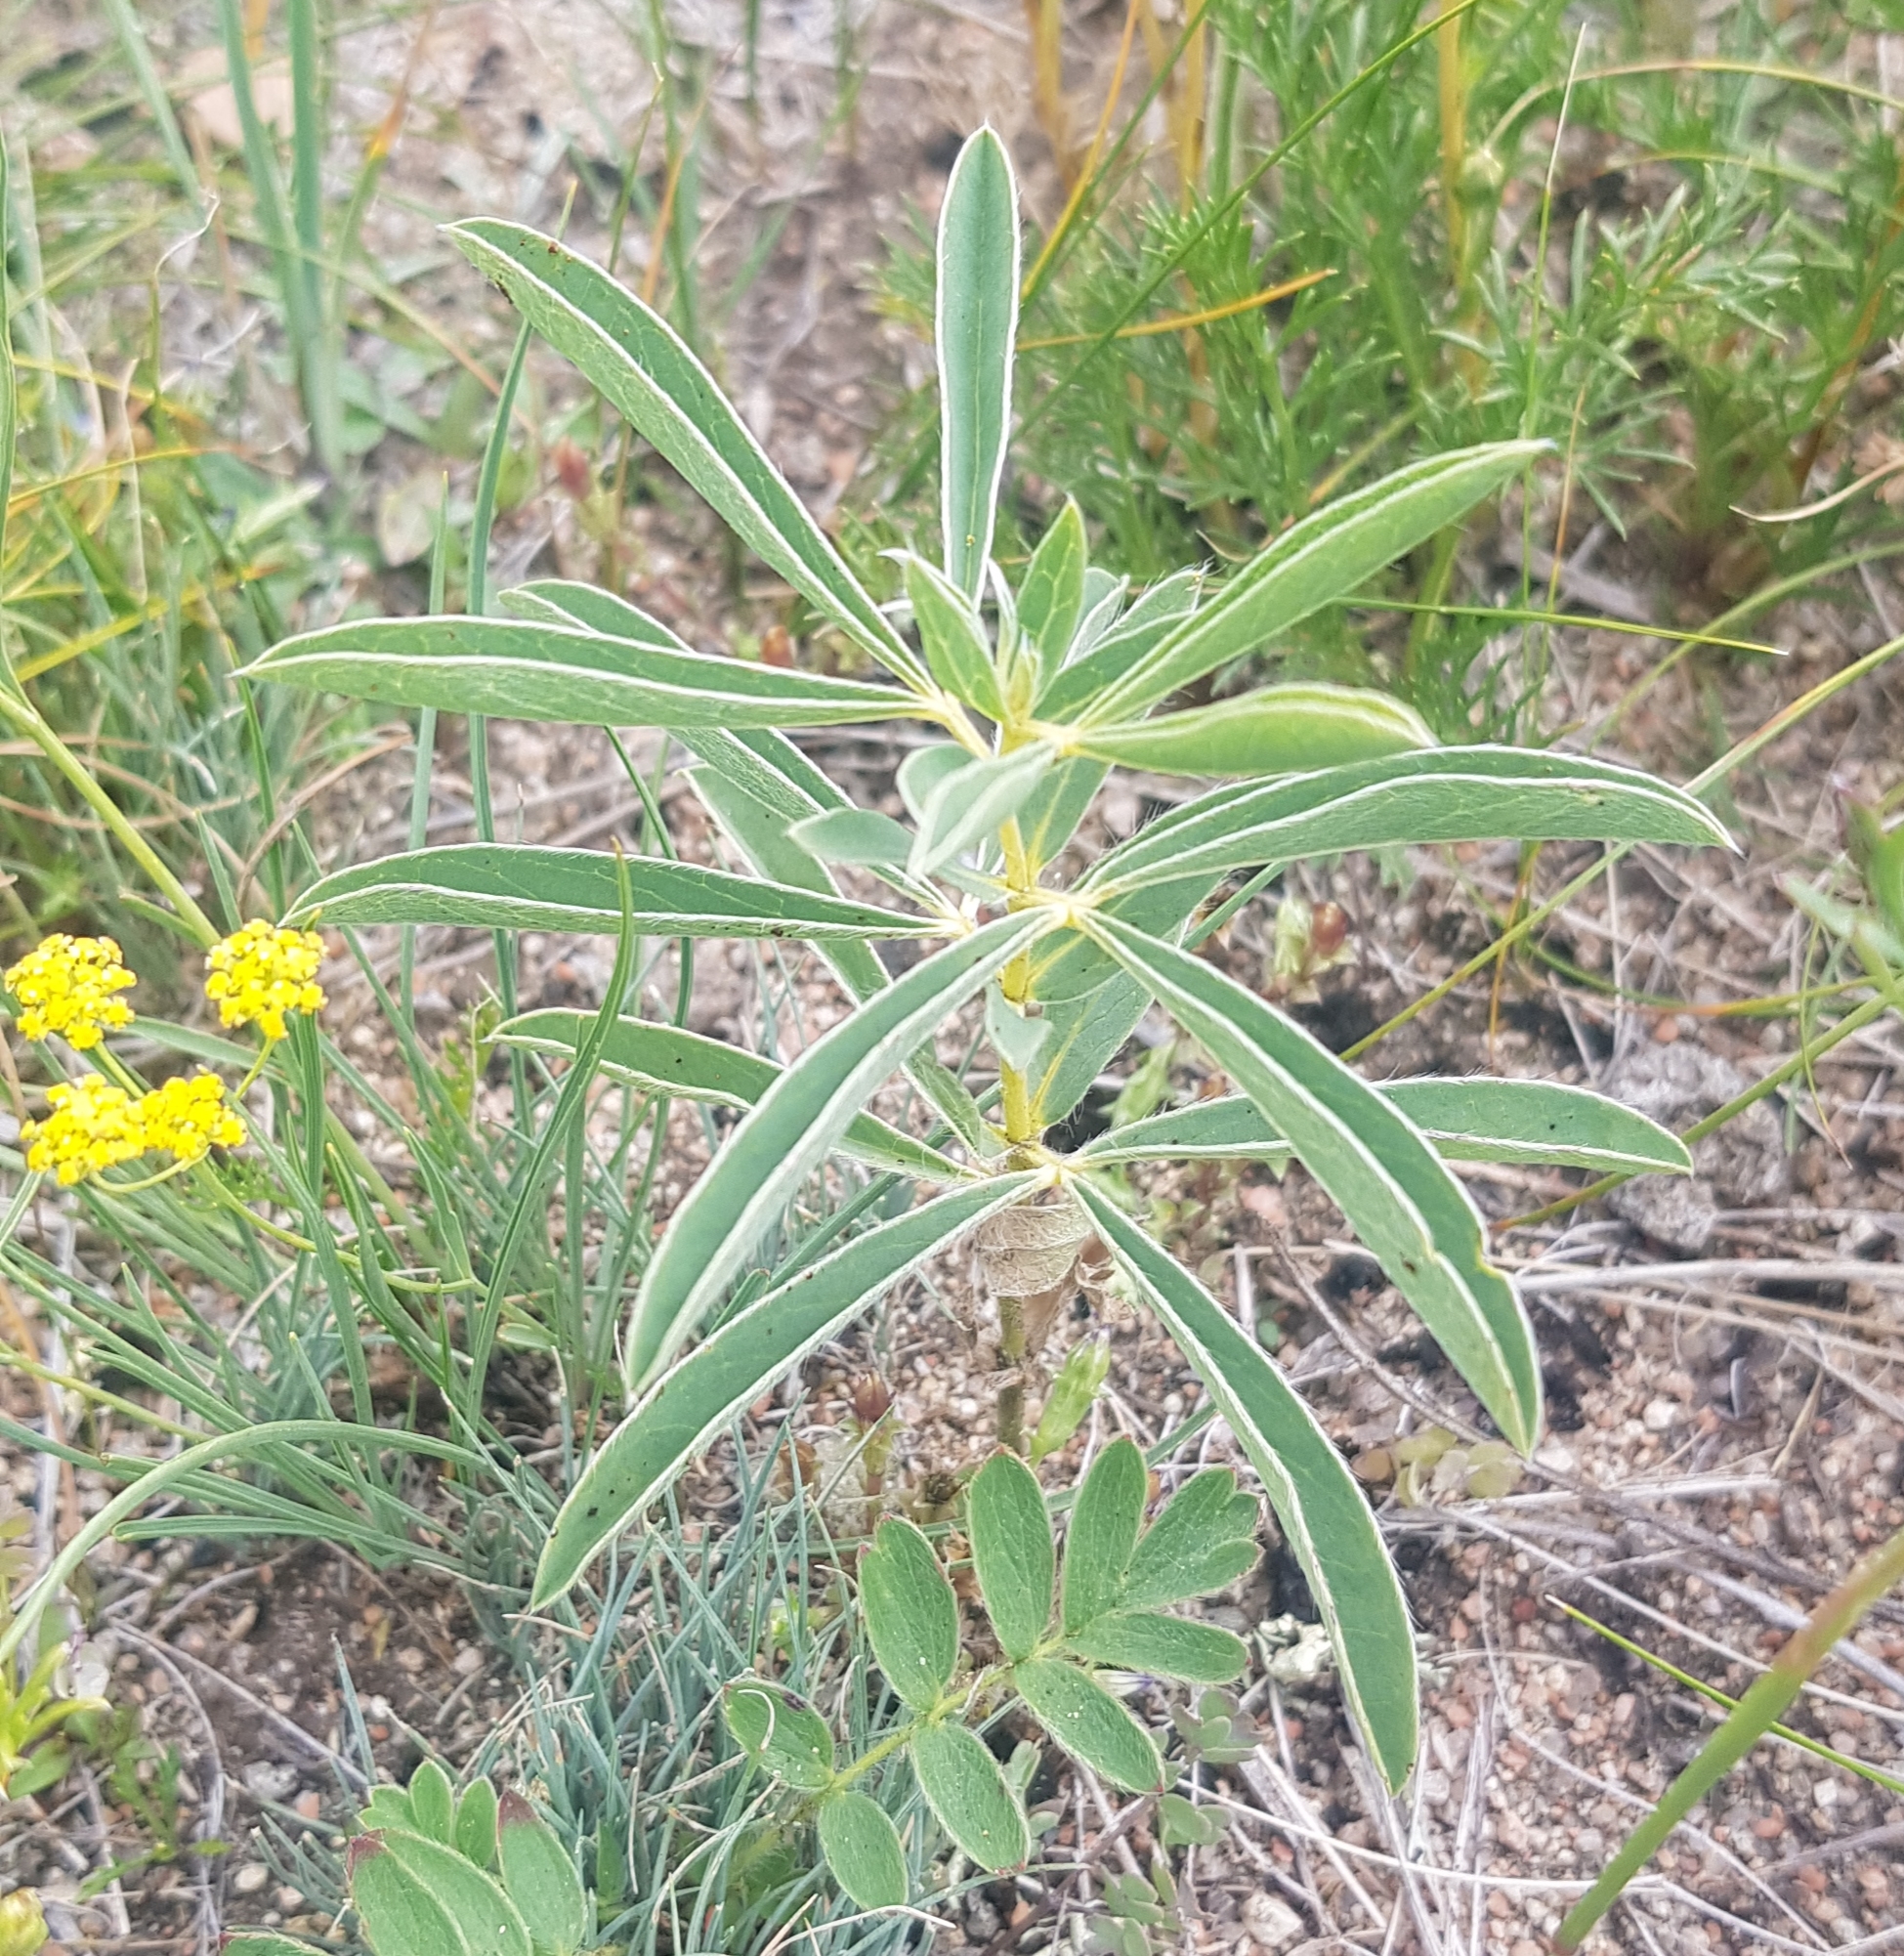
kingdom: Plantae
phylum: Tracheophyta
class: Magnoliopsida
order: Fabales
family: Fabaceae
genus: Thermopsis
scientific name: Thermopsis lanceolata
